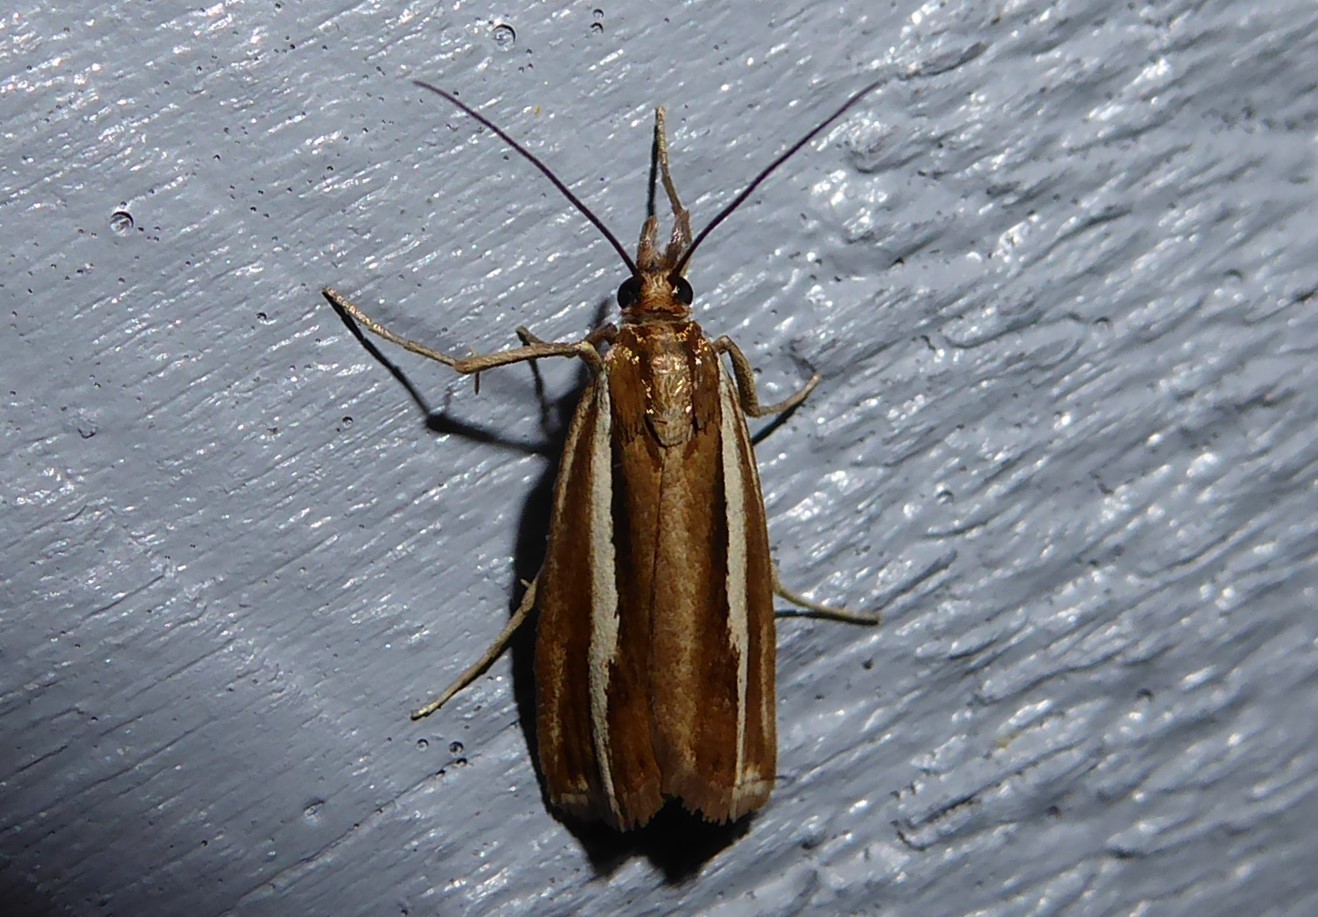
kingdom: Animalia
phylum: Arthropoda
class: Insecta
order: Lepidoptera
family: Crambidae
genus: Orocrambus
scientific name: Orocrambus aethonellus
